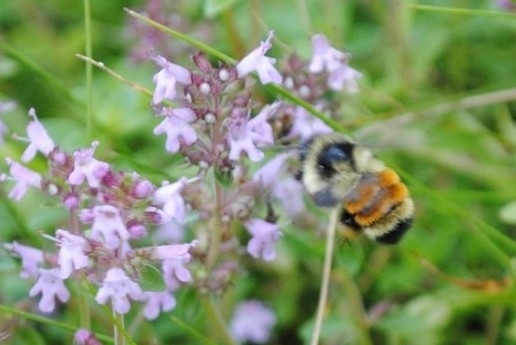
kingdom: Animalia
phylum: Arthropoda
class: Insecta
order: Hymenoptera
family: Apidae
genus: Bombus
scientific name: Bombus ternarius
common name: Tri-colored bumble bee
